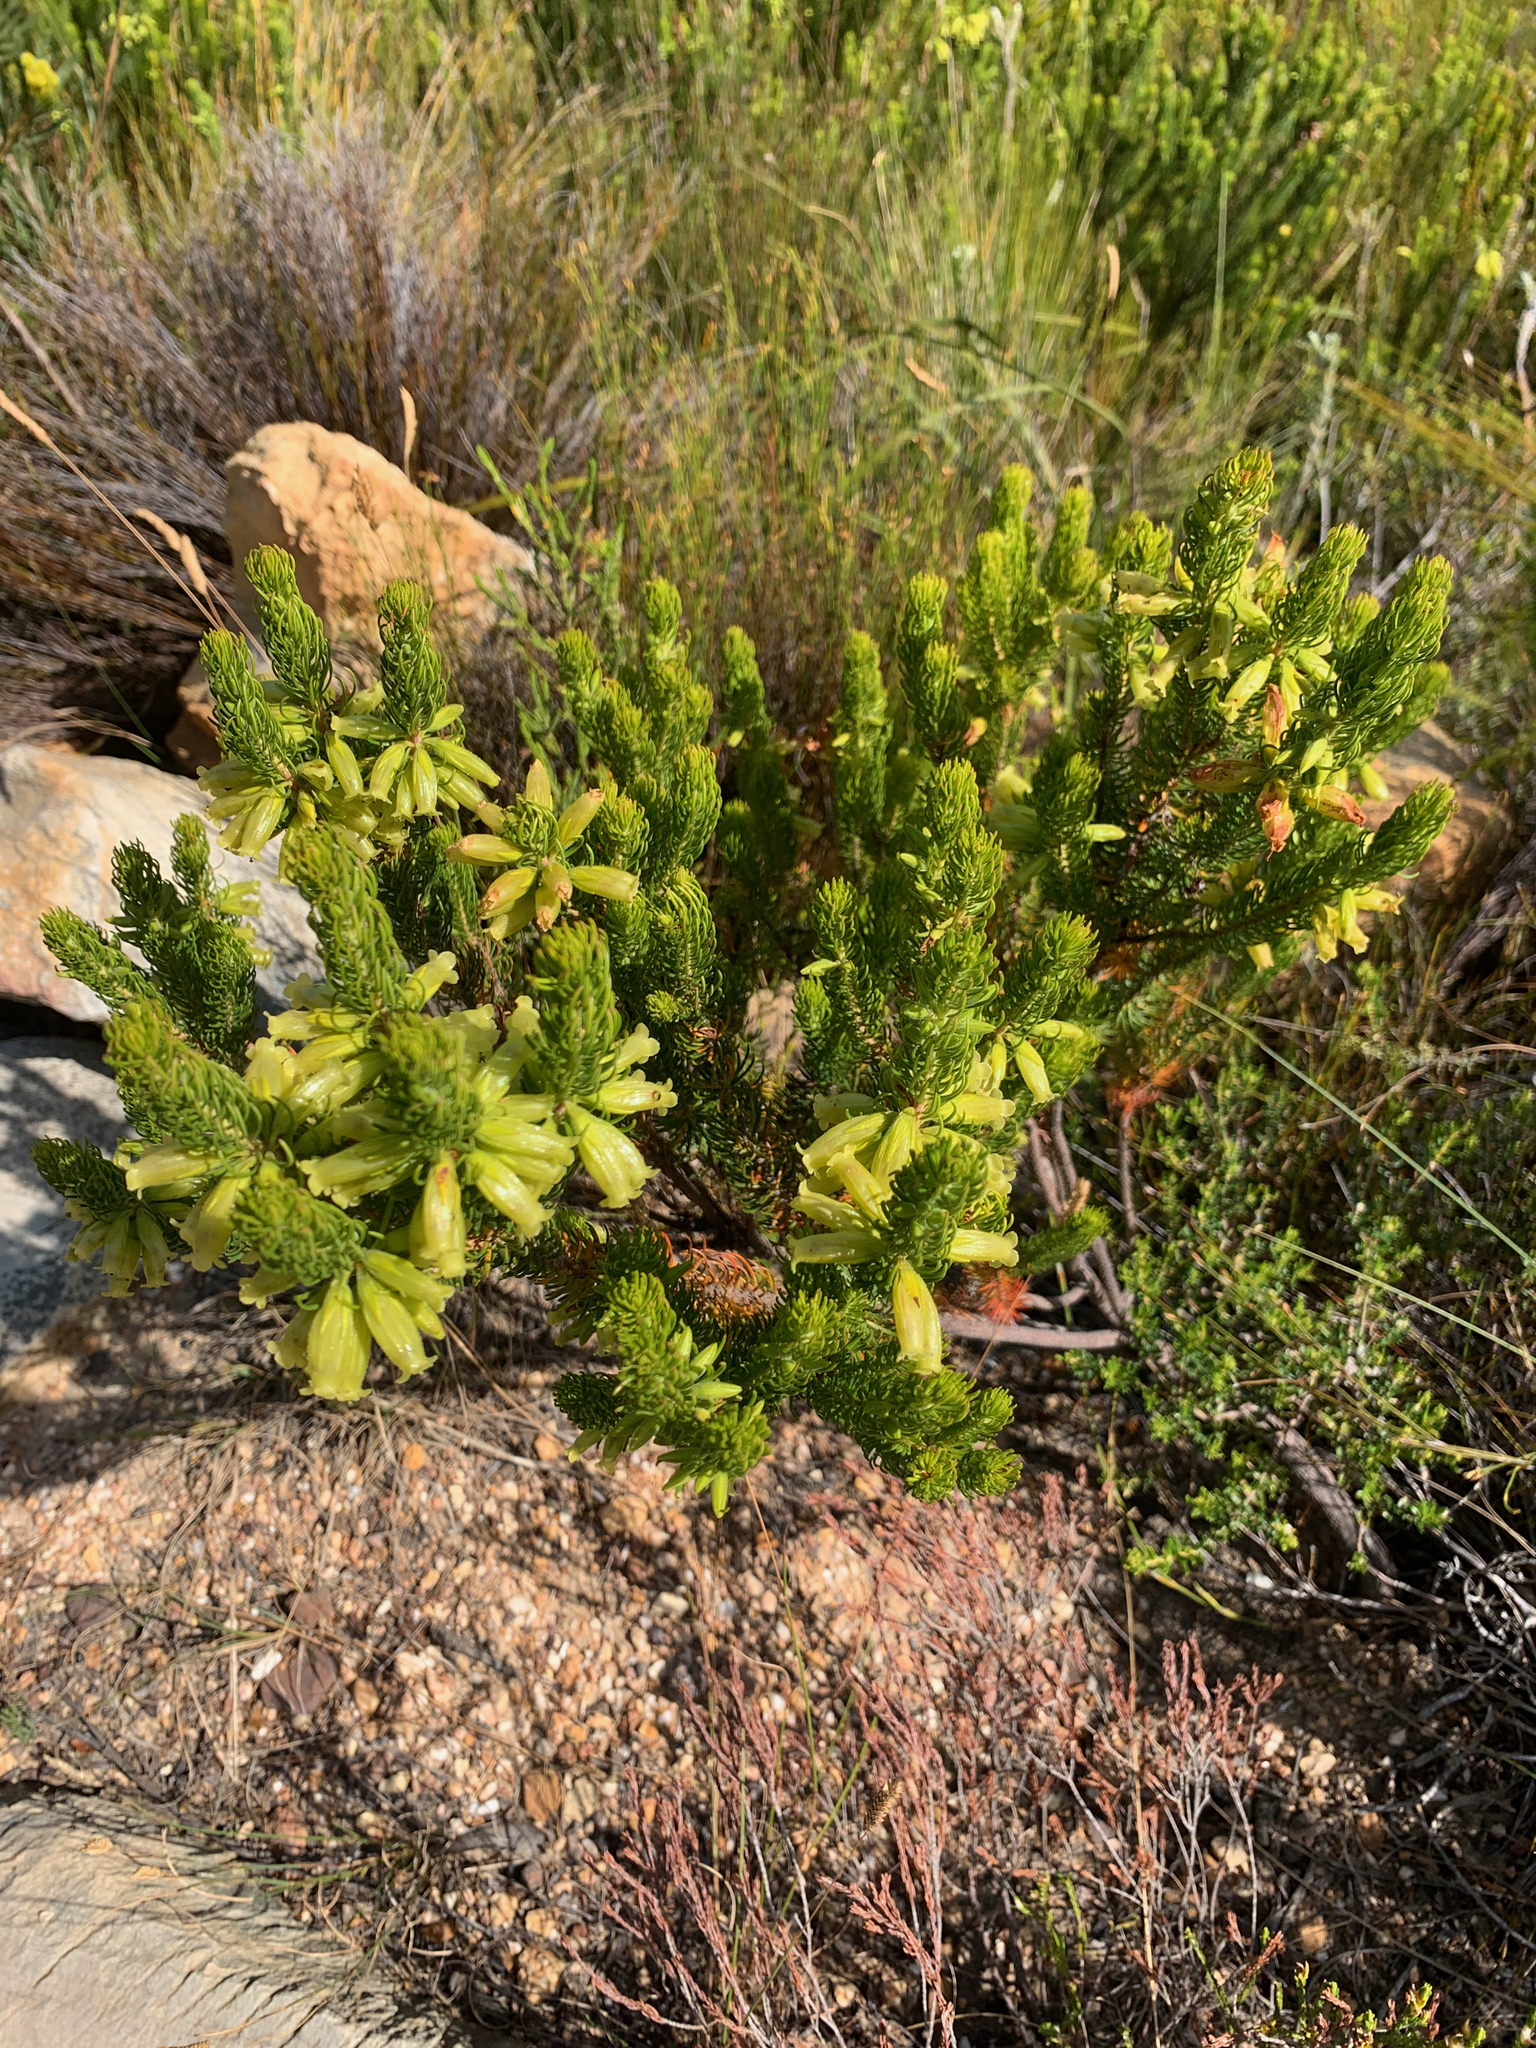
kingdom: Plantae
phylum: Tracheophyta
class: Magnoliopsida
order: Ericales
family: Ericaceae
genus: Erica
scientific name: Erica viscaria
